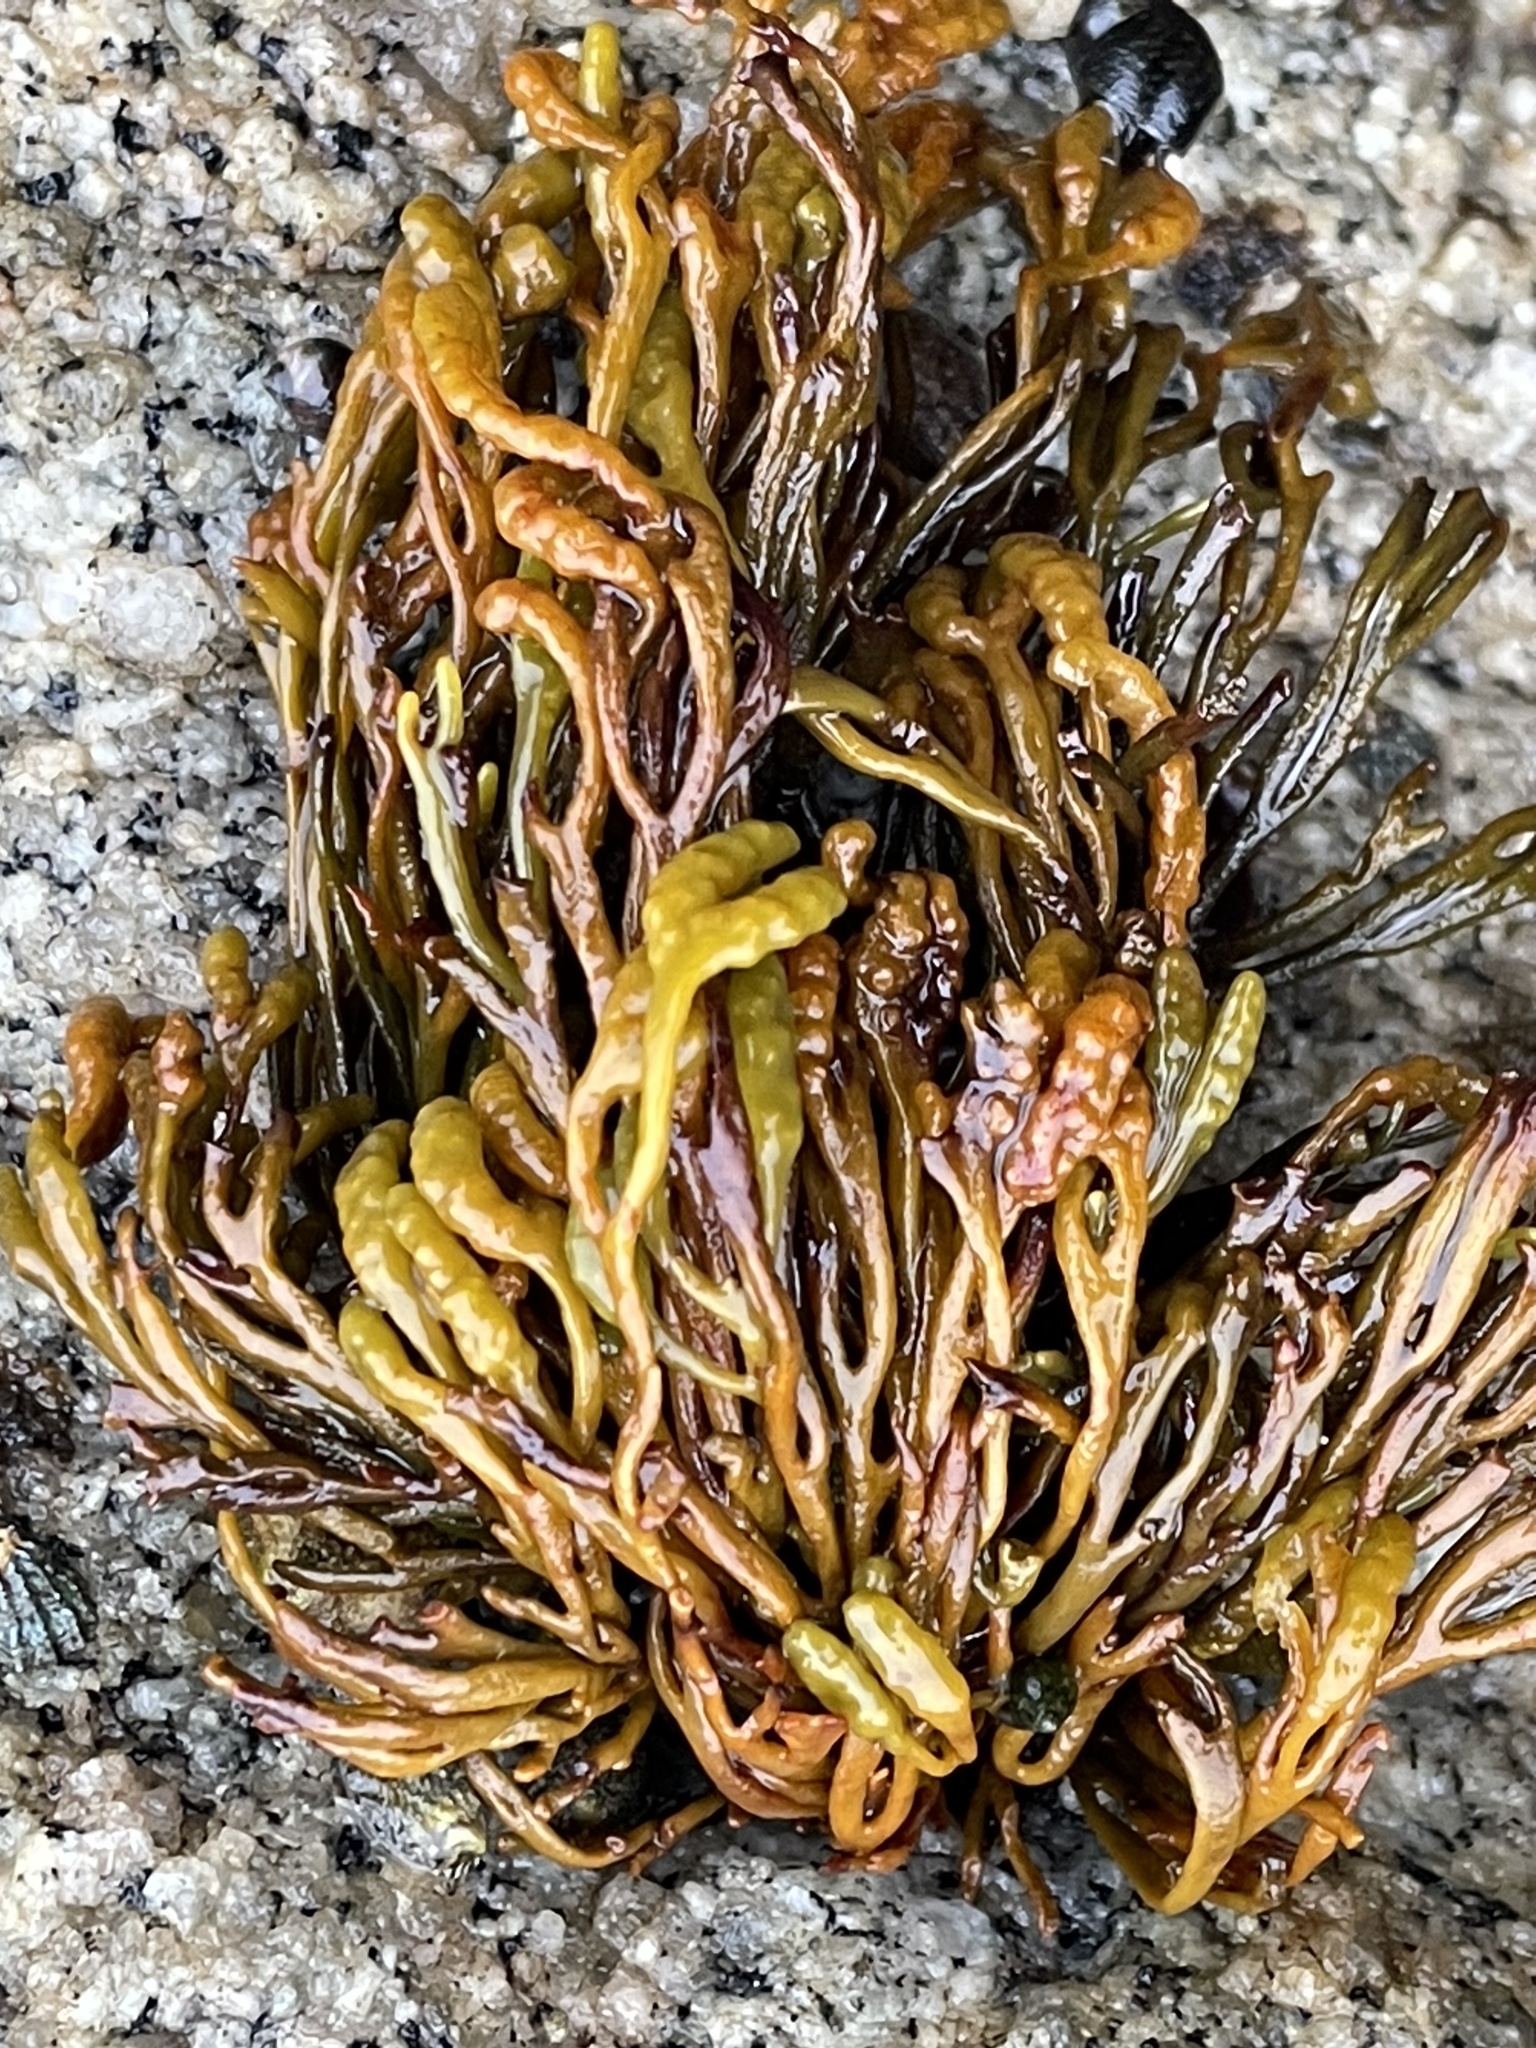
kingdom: Chromista
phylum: Ochrophyta
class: Phaeophyceae
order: Fucales
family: Fucaceae
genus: Pelvetiopsis
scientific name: Pelvetiopsis limitata
